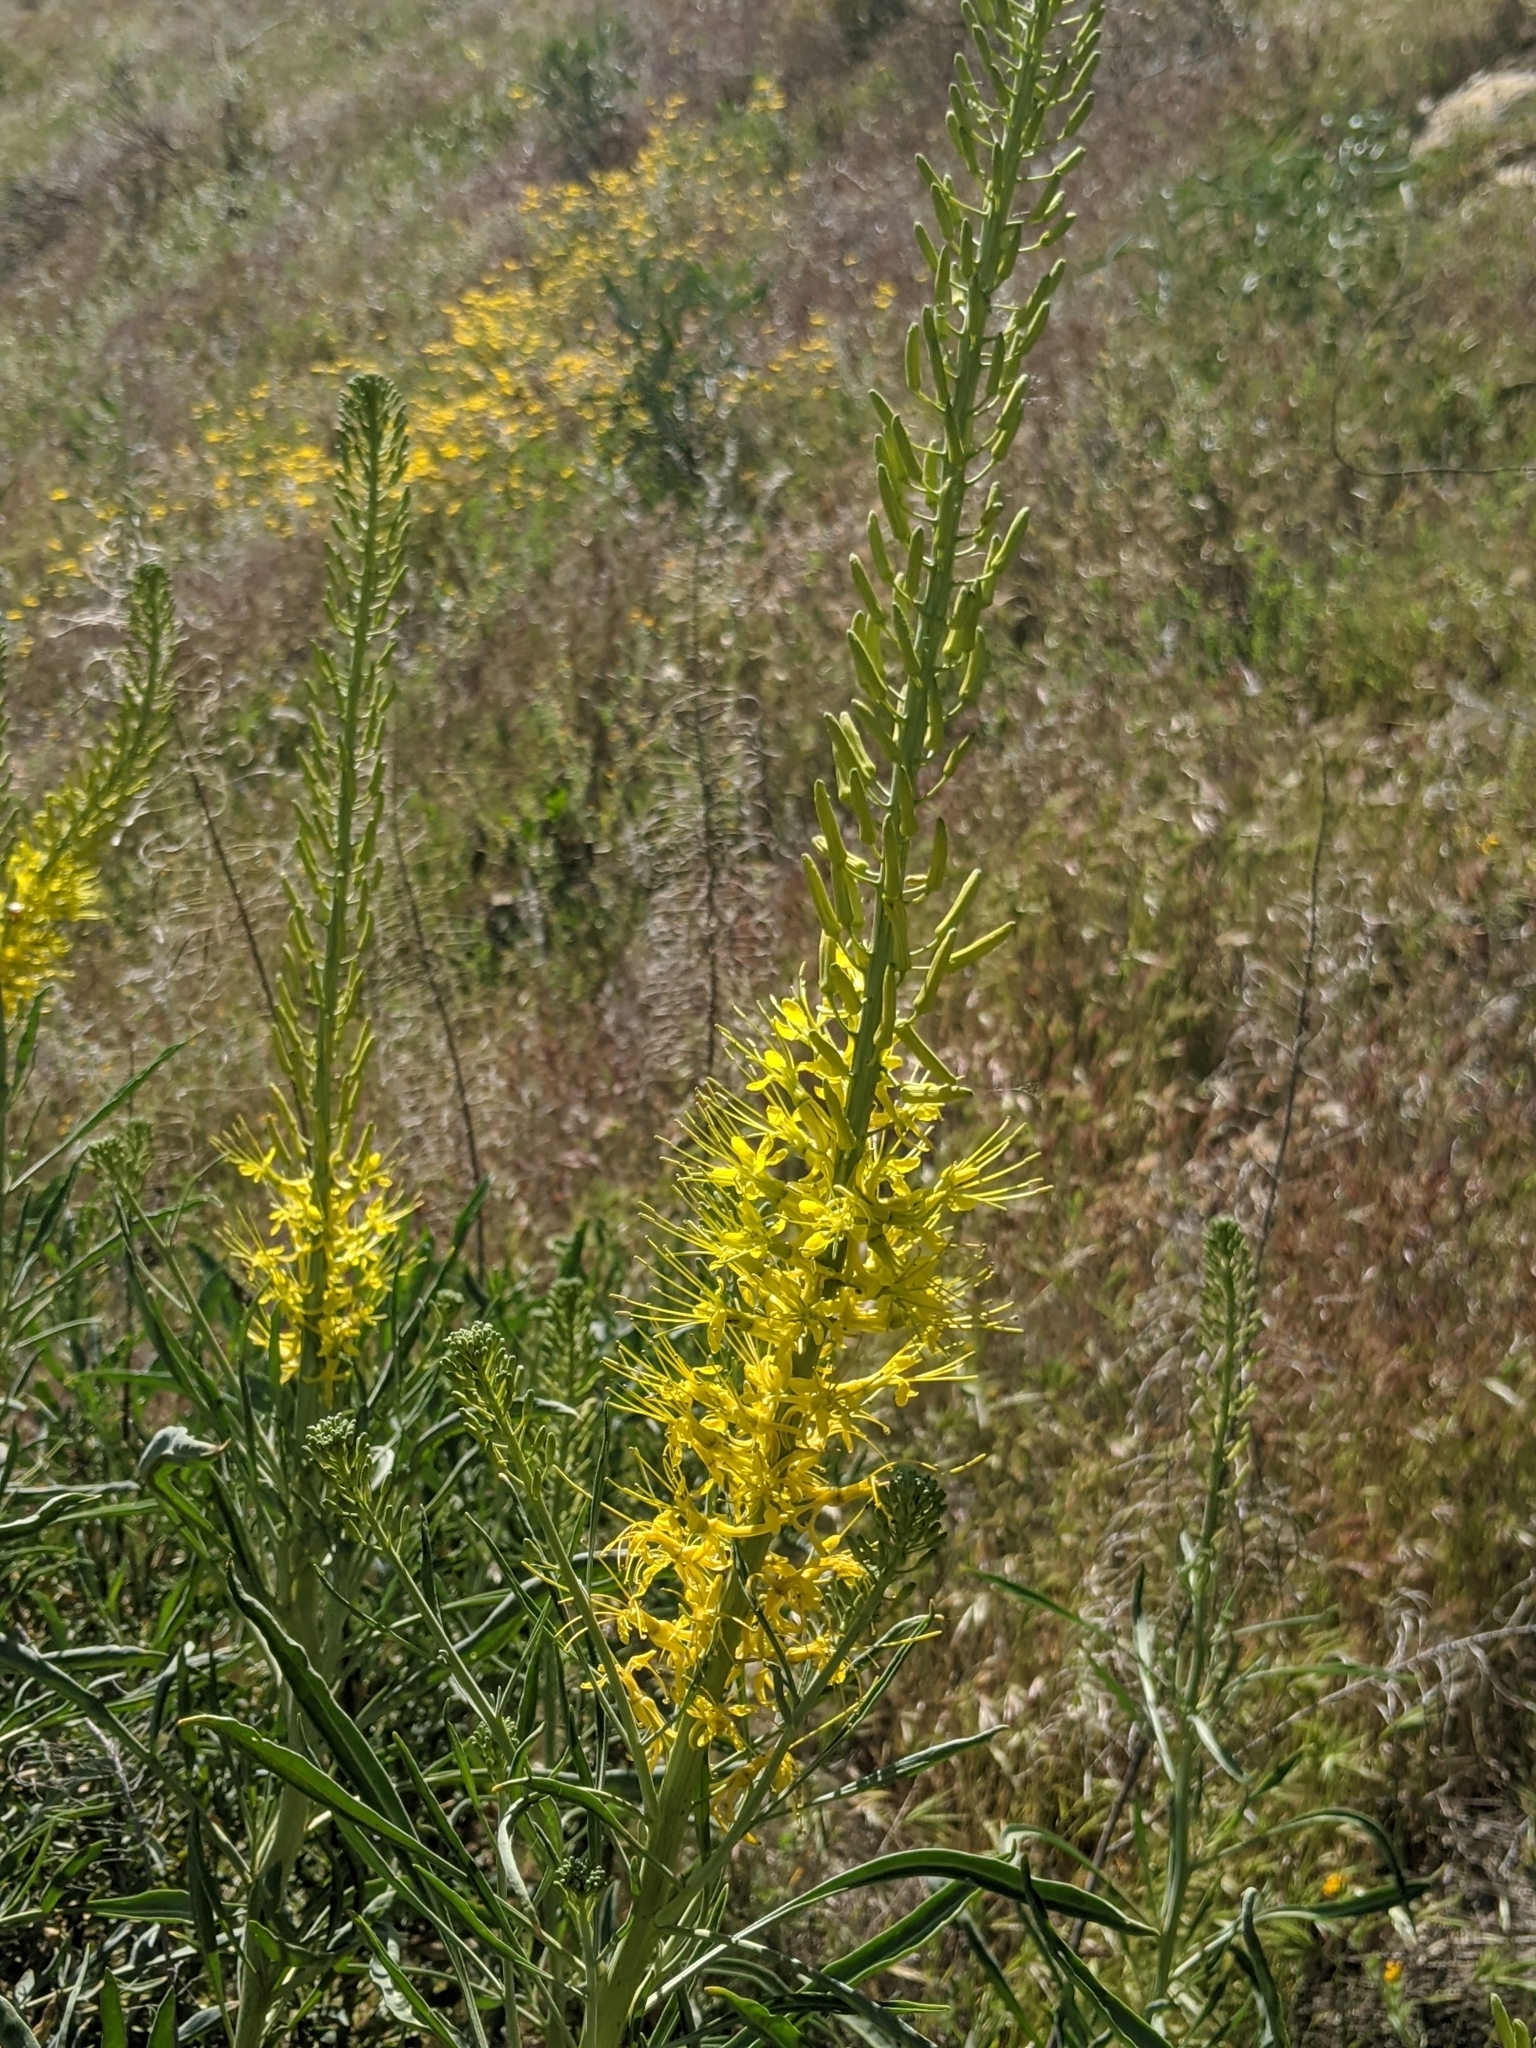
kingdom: Plantae
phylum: Tracheophyta
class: Magnoliopsida
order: Brassicales
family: Brassicaceae
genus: Stanleya
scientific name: Stanleya pinnata
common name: Prince's-plume
